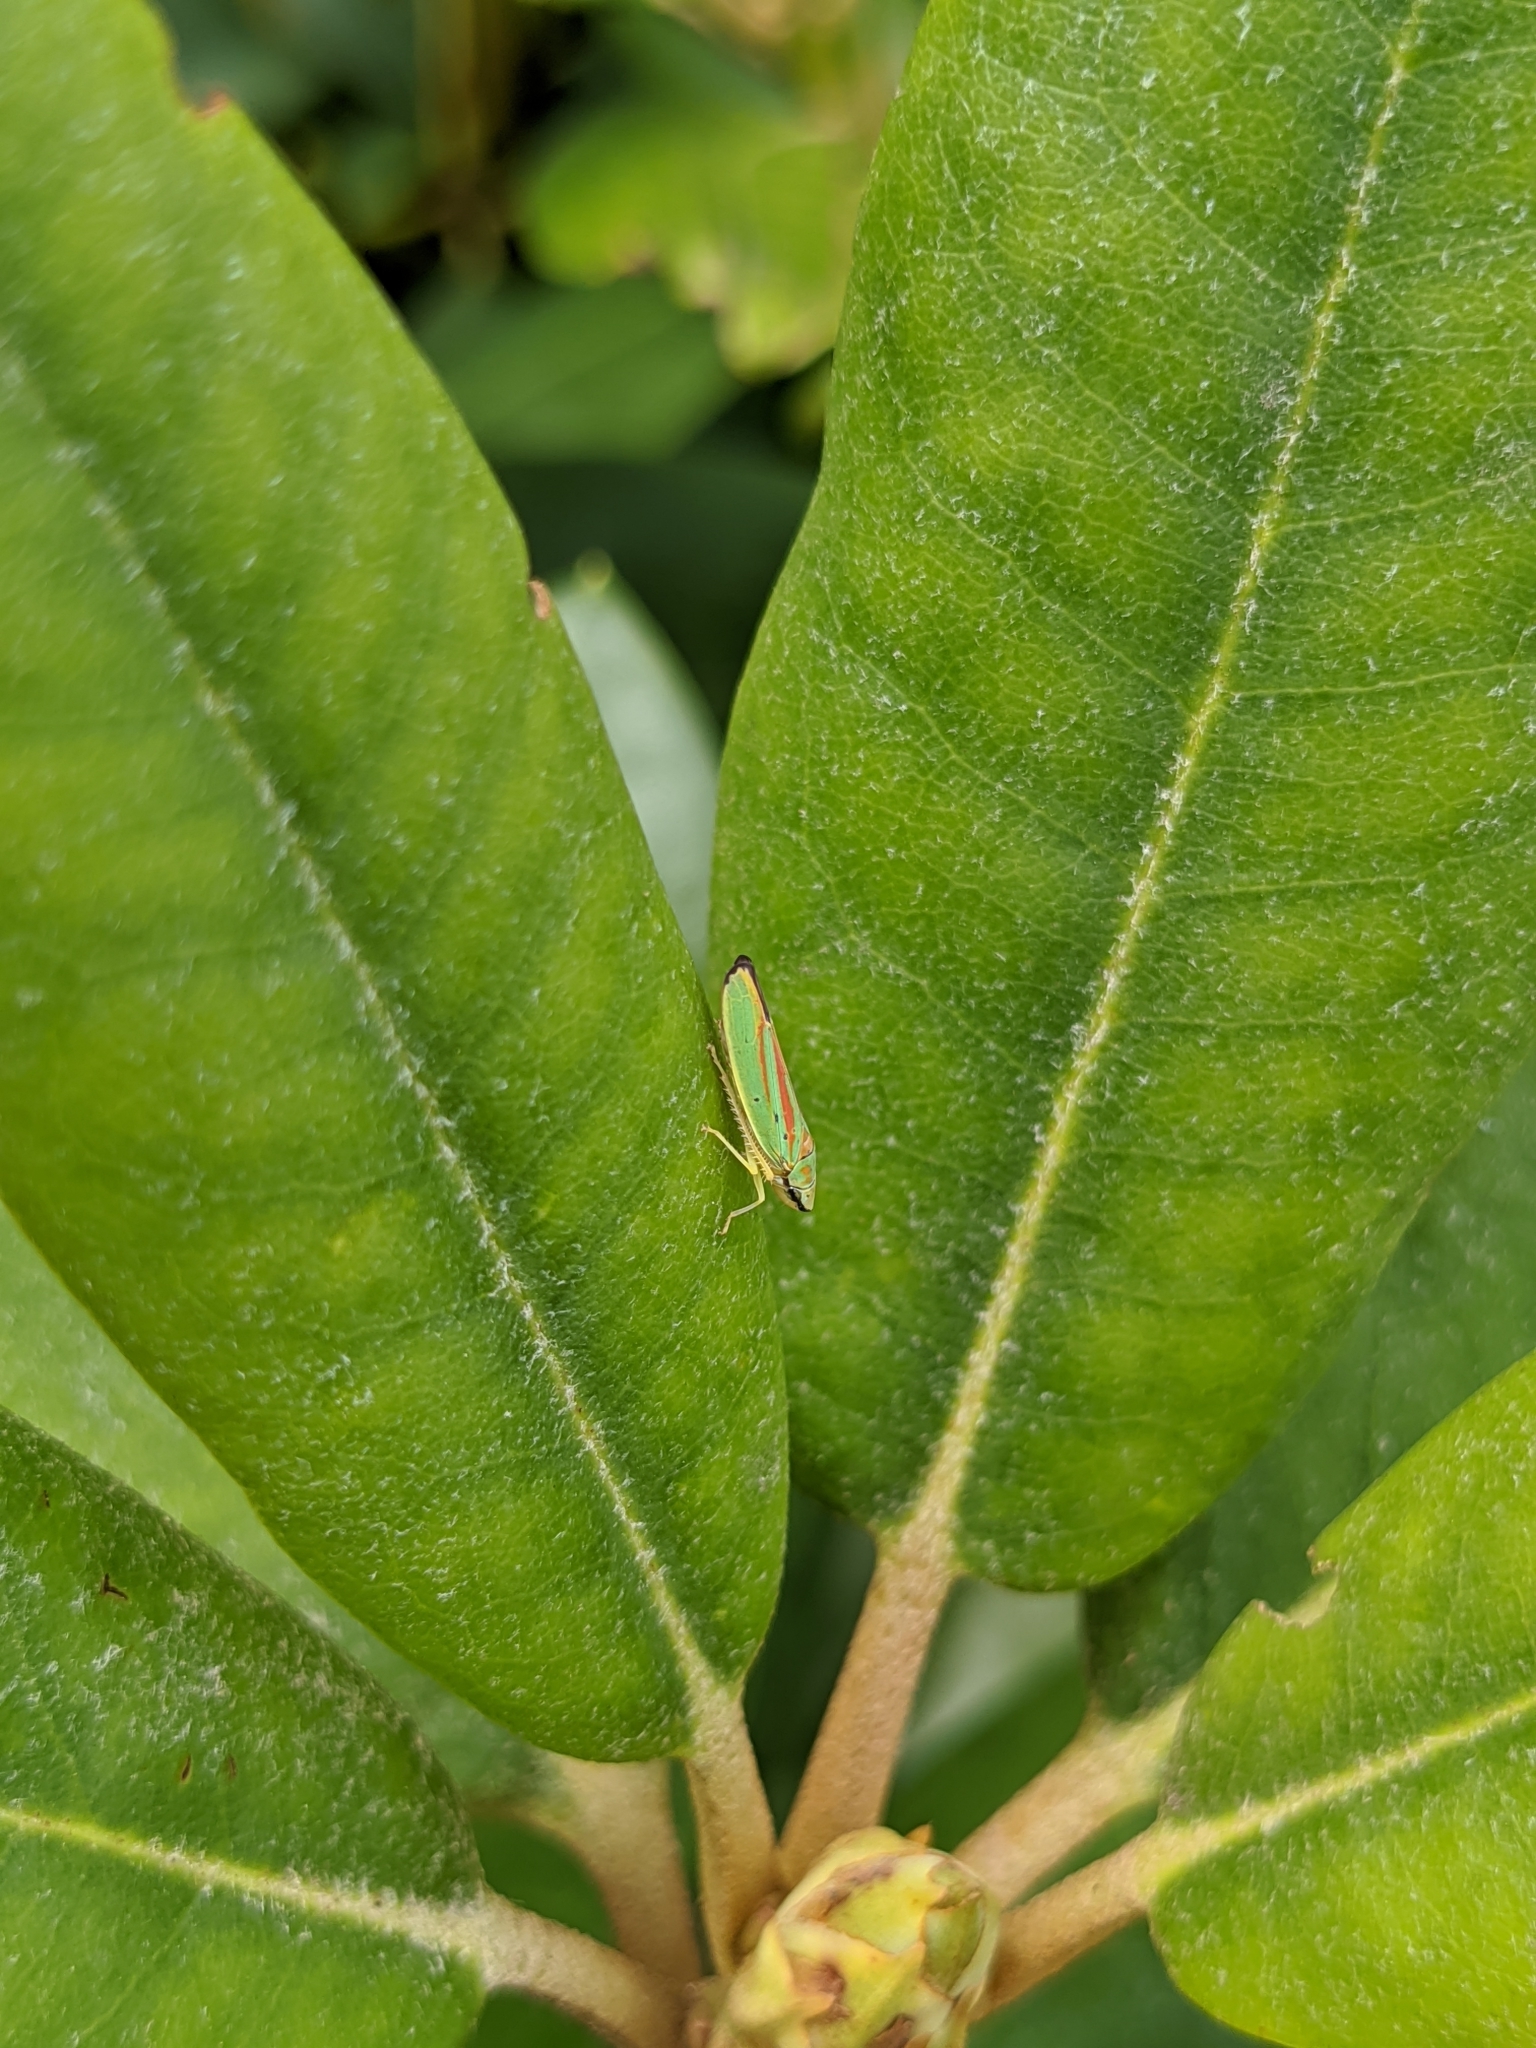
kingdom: Animalia
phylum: Arthropoda
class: Insecta
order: Hemiptera
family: Cicadellidae
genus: Graphocephala
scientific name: Graphocephala fennahi
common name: Rhododendron leafhopper
